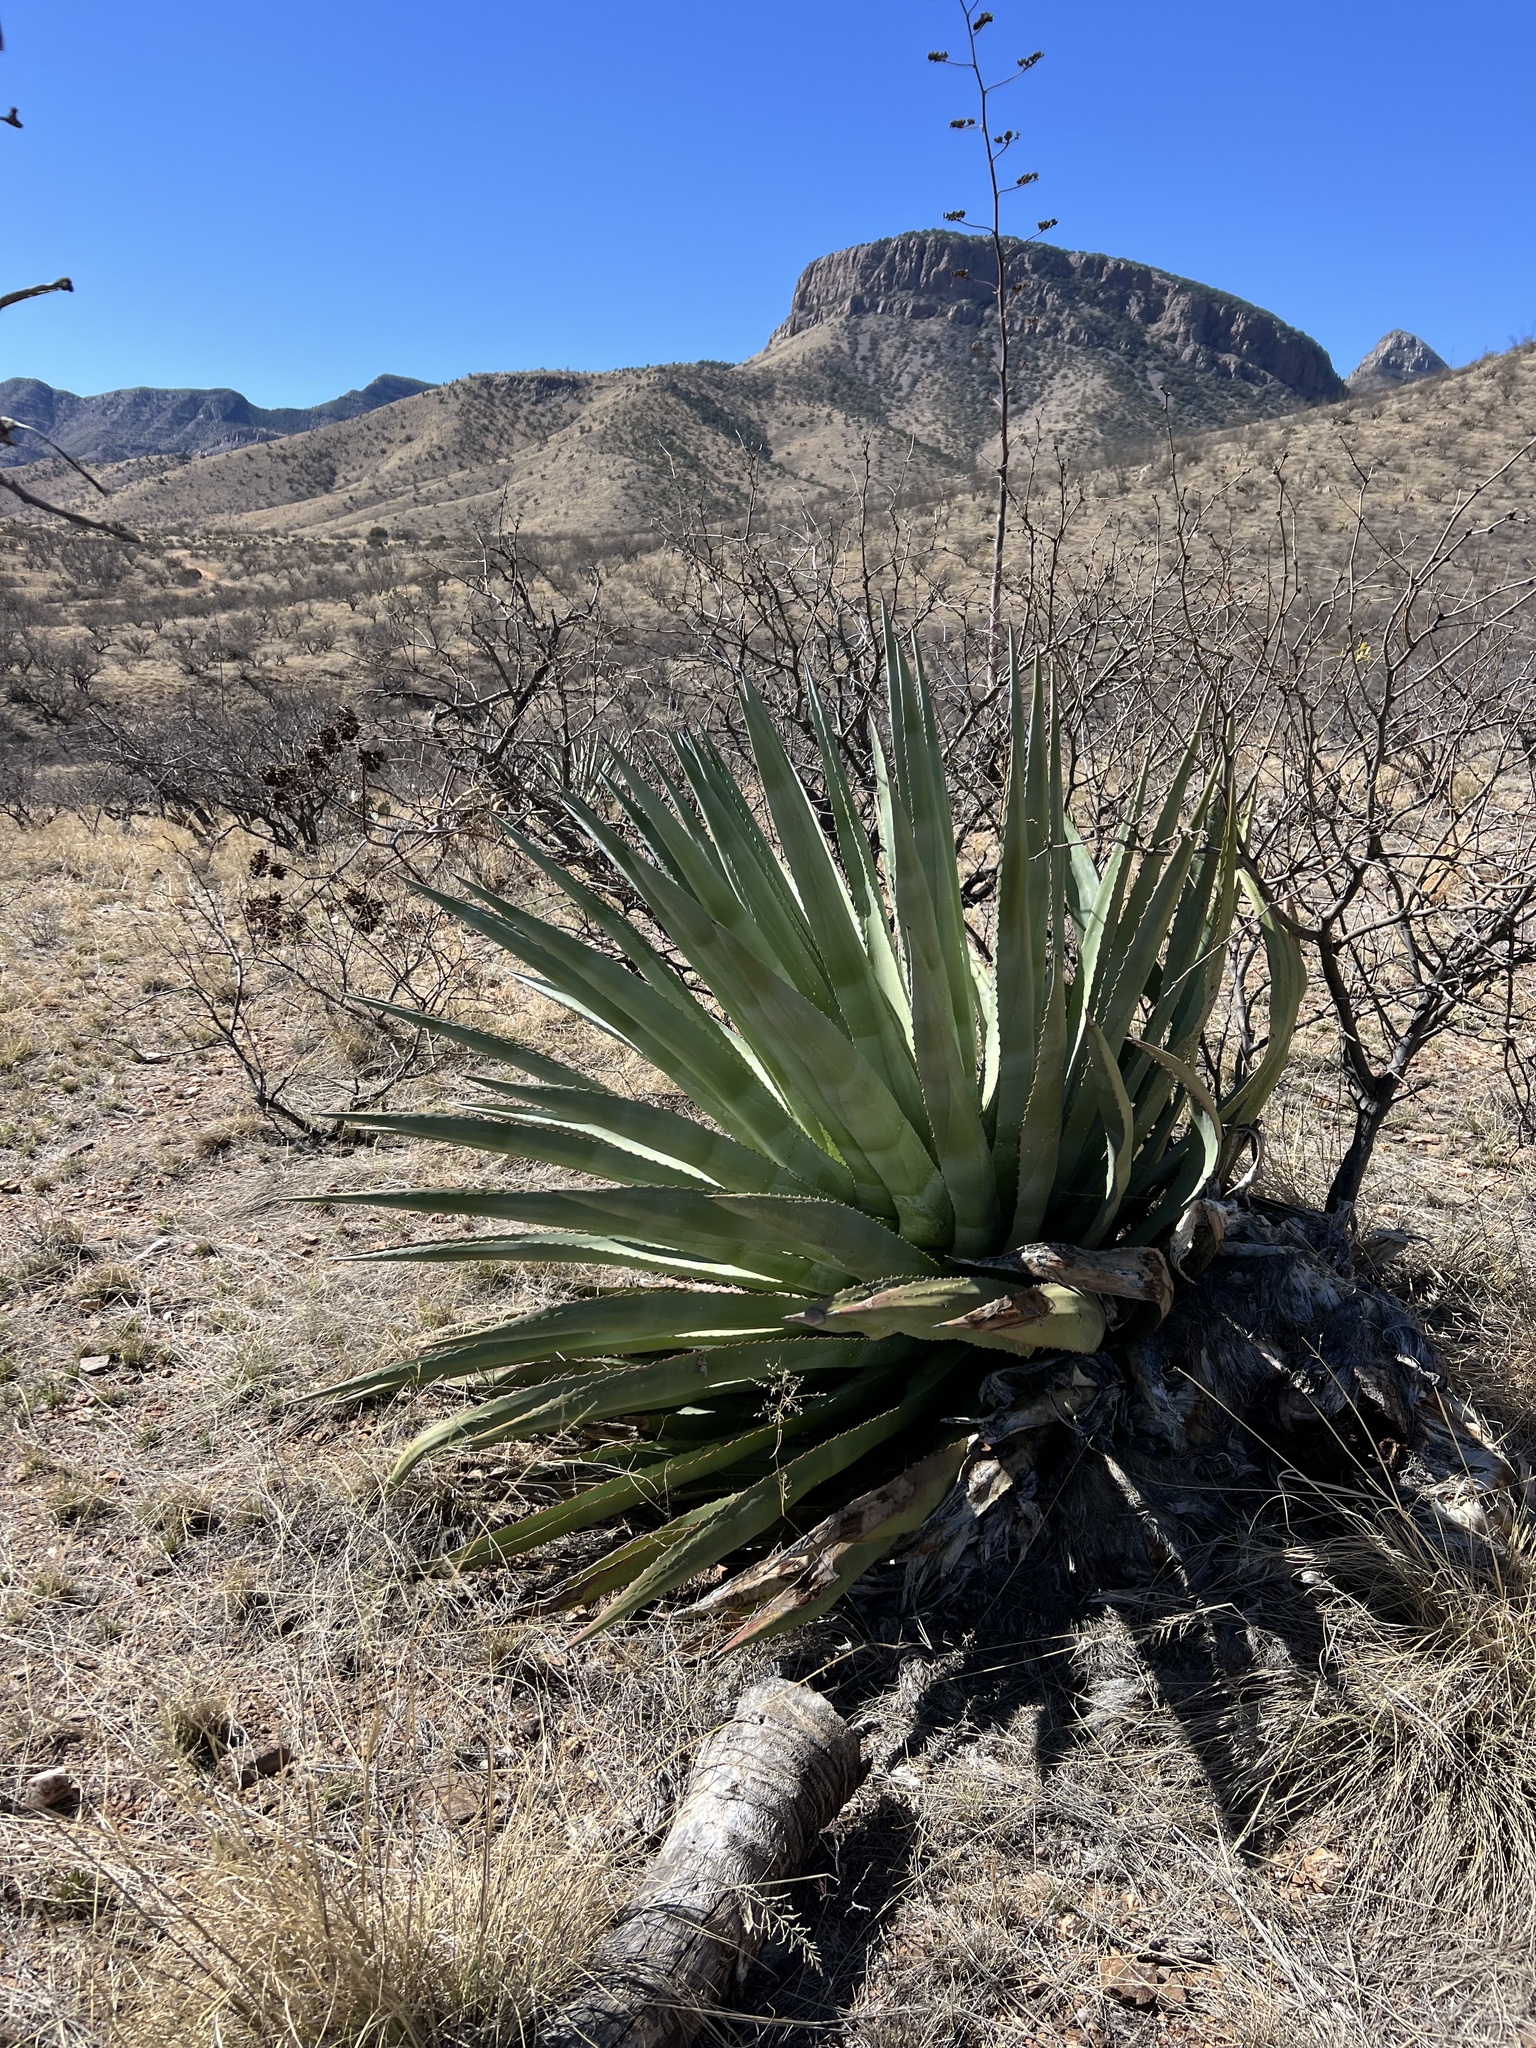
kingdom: Plantae
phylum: Tracheophyta
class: Liliopsida
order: Asparagales
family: Asparagaceae
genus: Agave
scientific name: Agave palmeri
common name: Palmer agave
